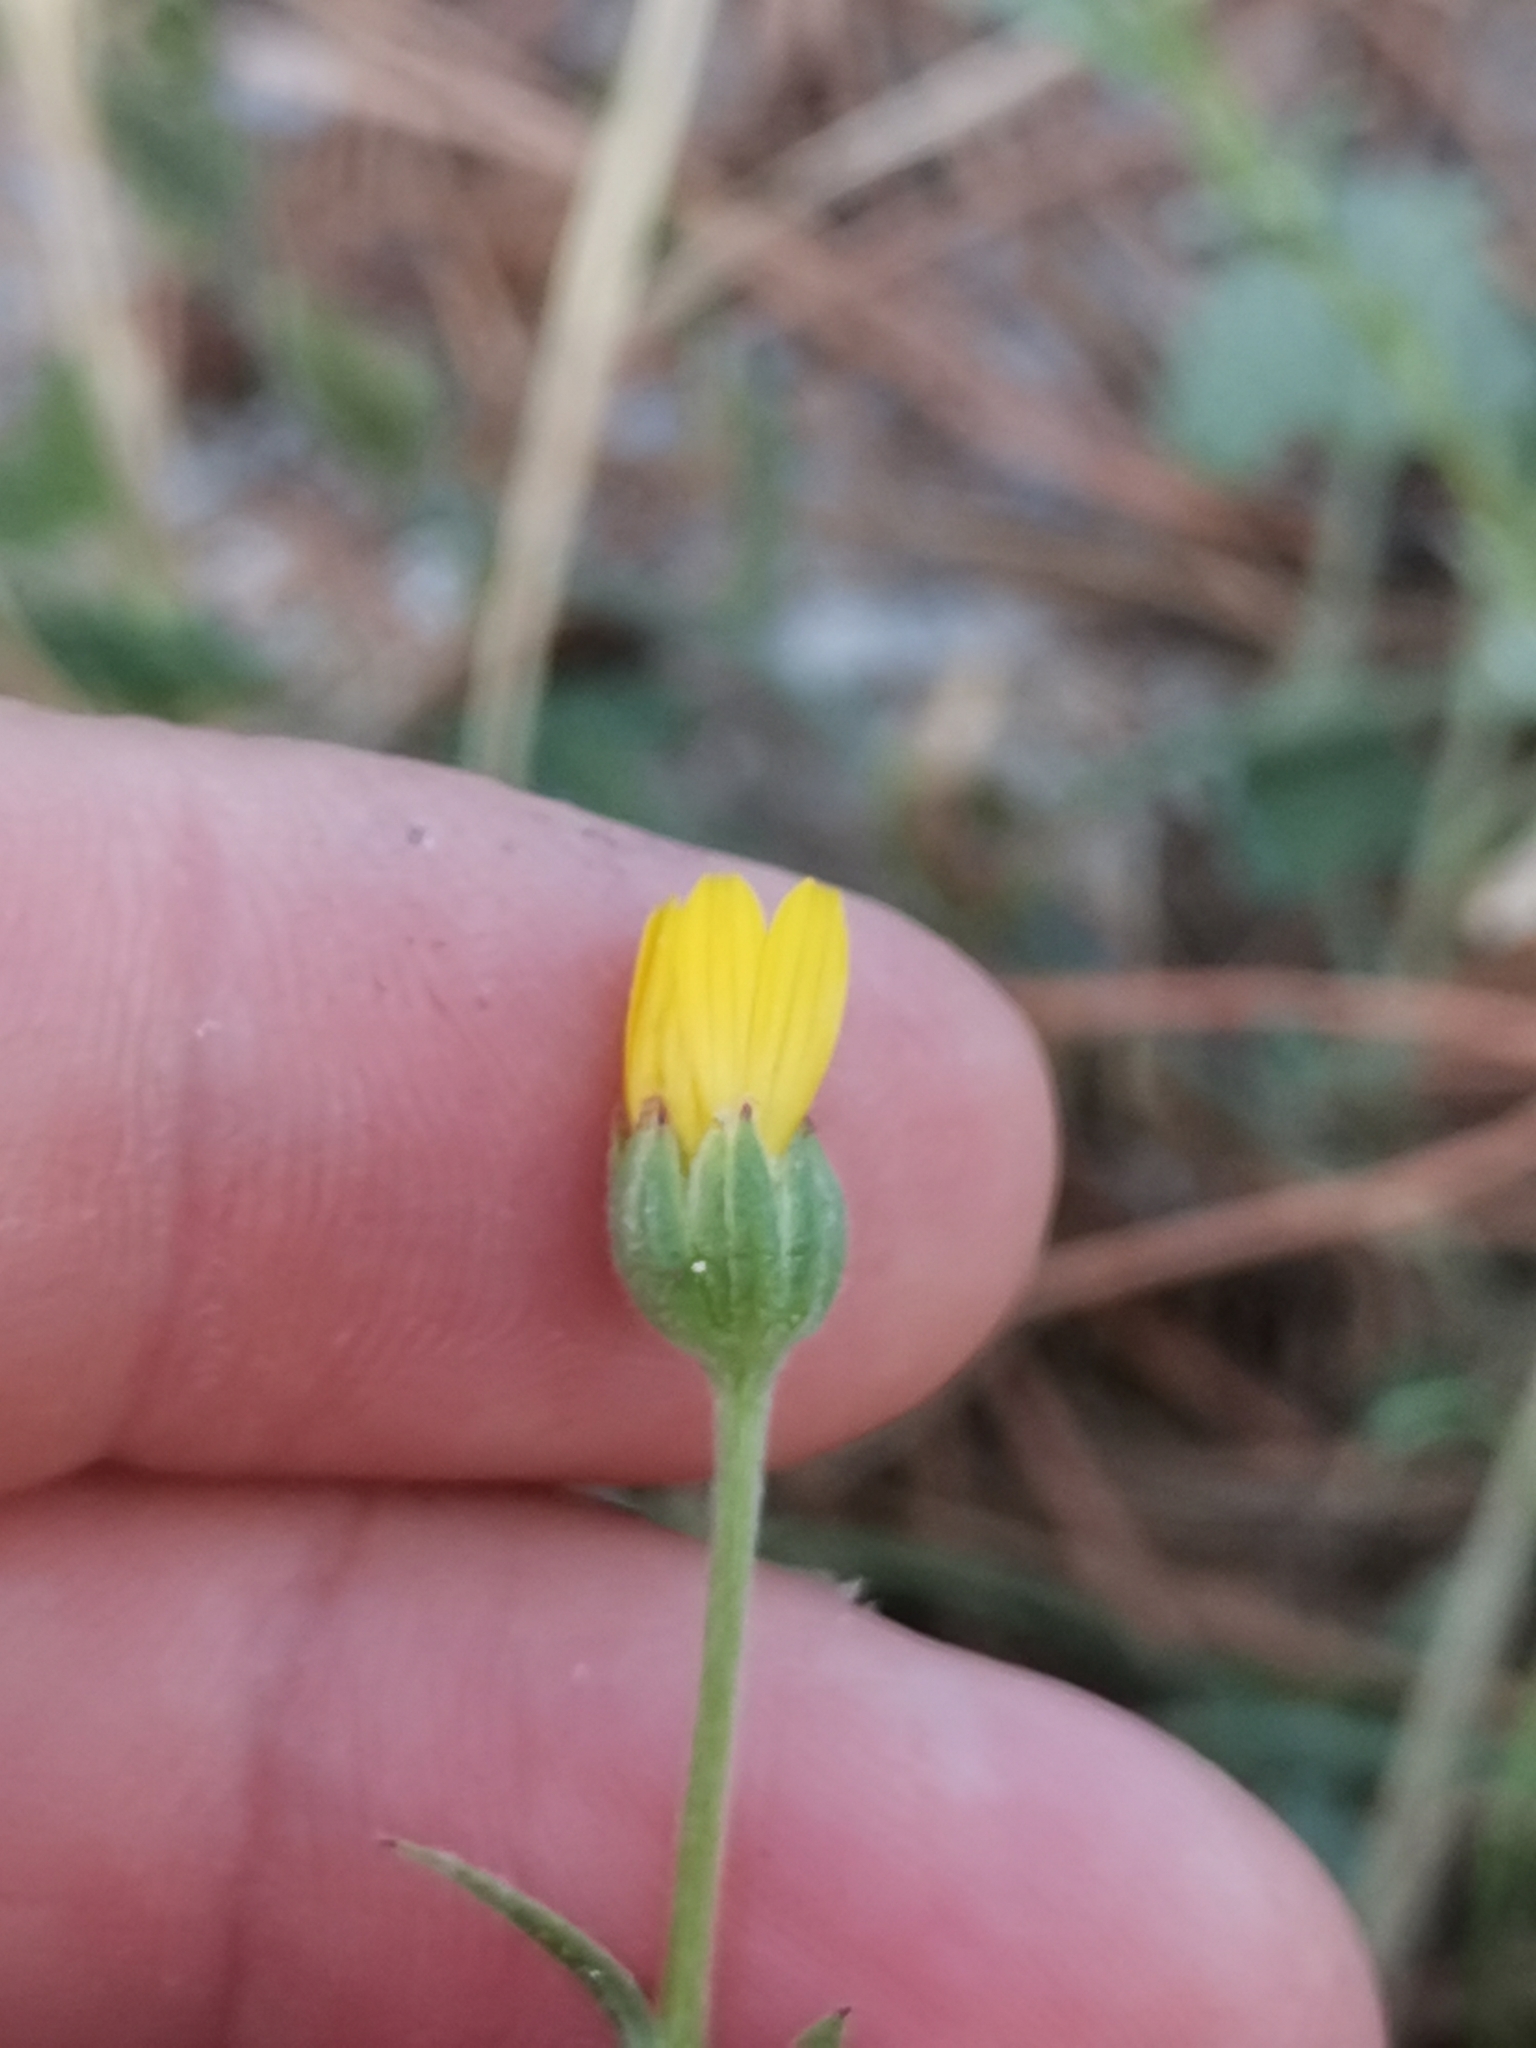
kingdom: Plantae
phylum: Tracheophyta
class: Magnoliopsida
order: Asterales
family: Asteraceae
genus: Calendula
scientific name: Calendula arvensis
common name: Field marigold
